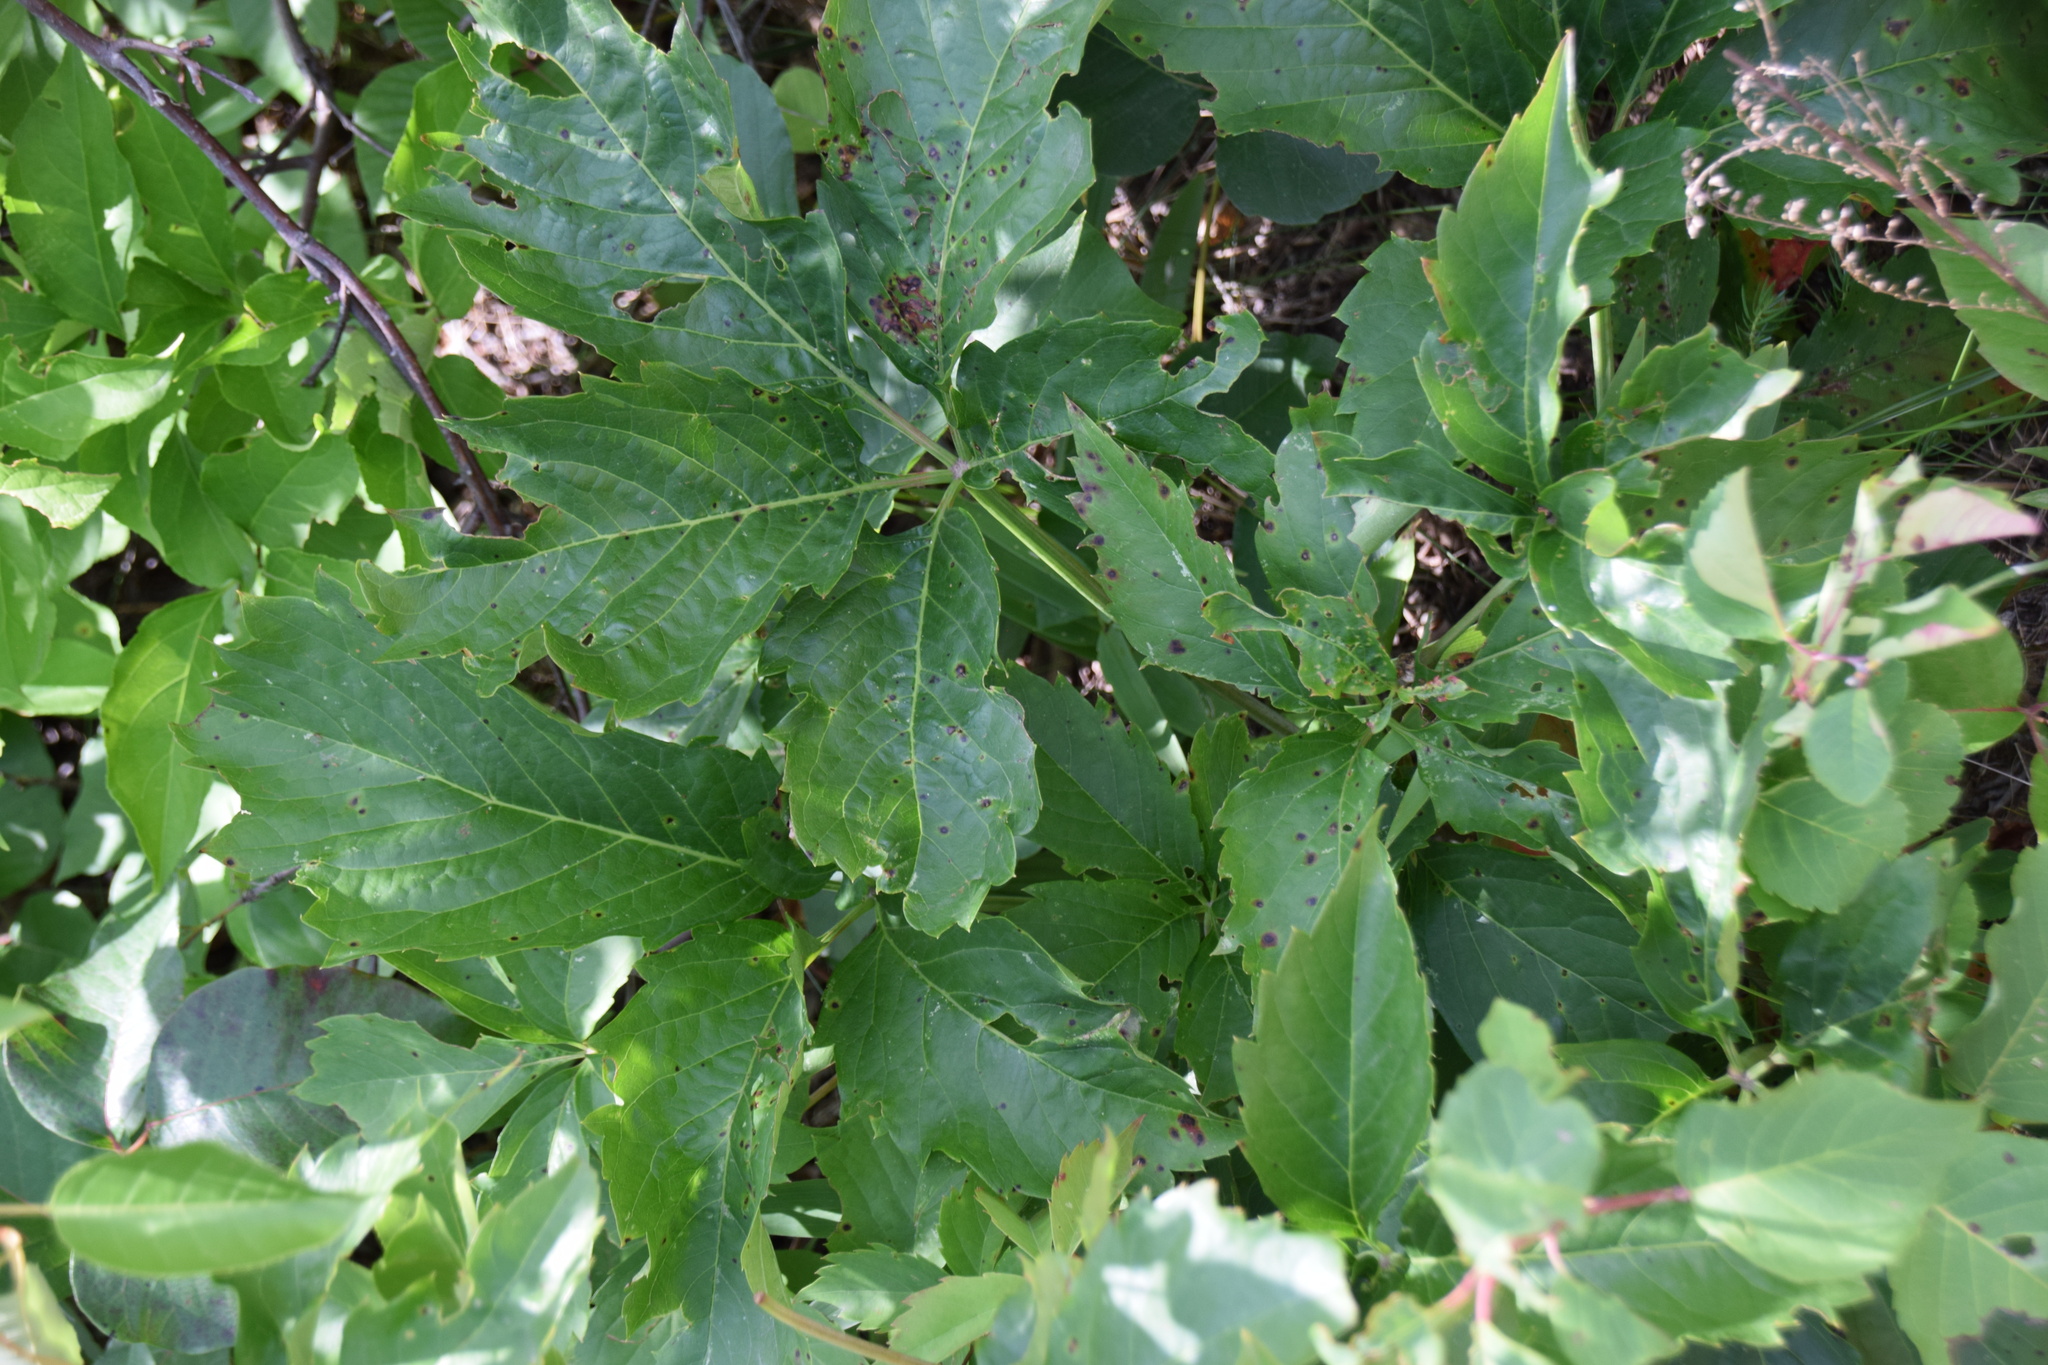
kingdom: Plantae
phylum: Tracheophyta
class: Magnoliopsida
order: Vitales
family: Vitaceae
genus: Parthenocissus
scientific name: Parthenocissus inserta
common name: False virginia-creeper
